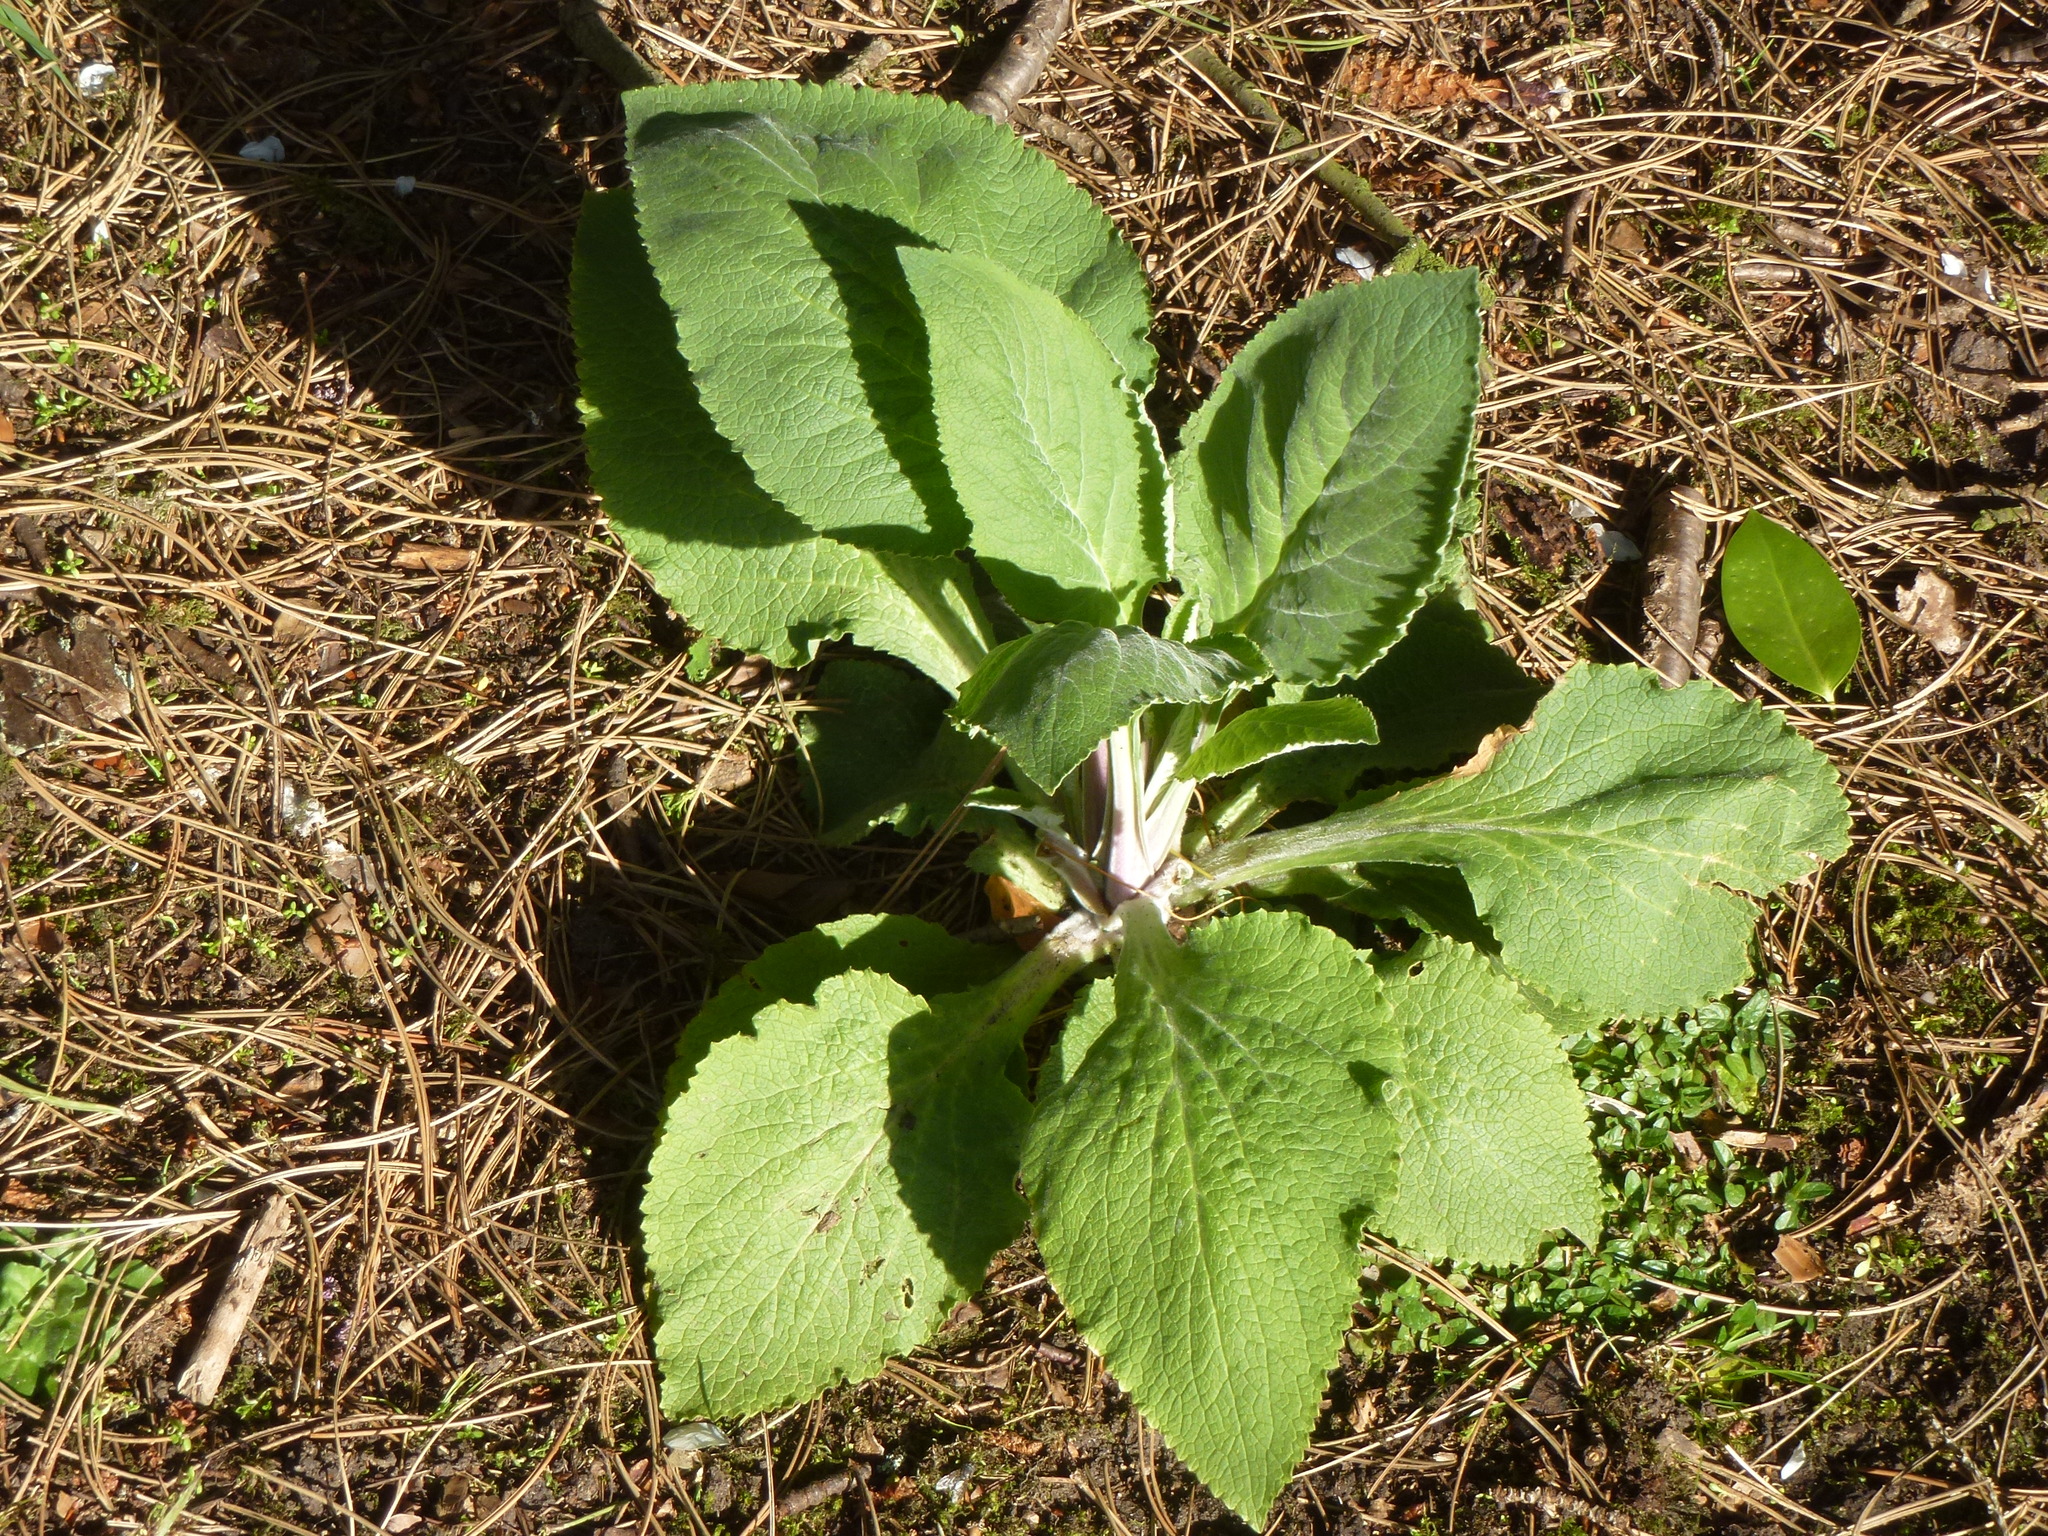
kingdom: Plantae
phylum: Tracheophyta
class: Magnoliopsida
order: Lamiales
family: Plantaginaceae
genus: Digitalis
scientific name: Digitalis purpurea
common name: Foxglove
